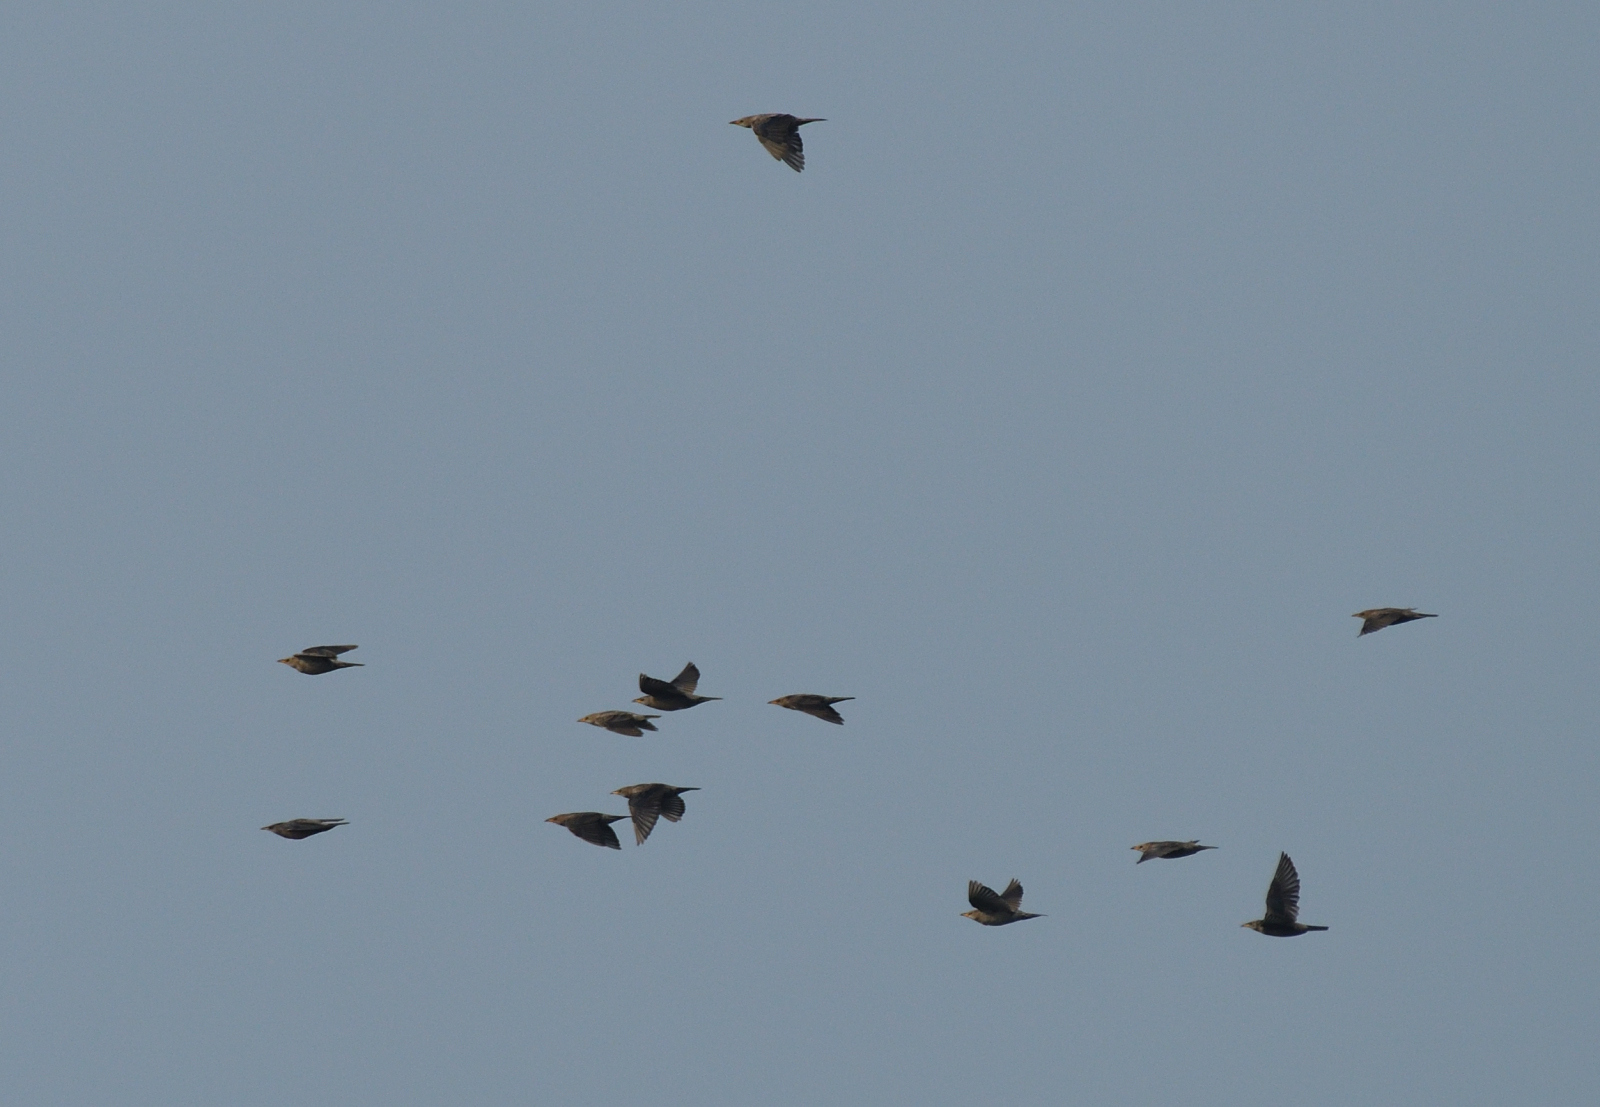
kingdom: Animalia
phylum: Chordata
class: Aves
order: Passeriformes
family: Sturnidae
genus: Pastor
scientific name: Pastor roseus
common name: Rosy starling
